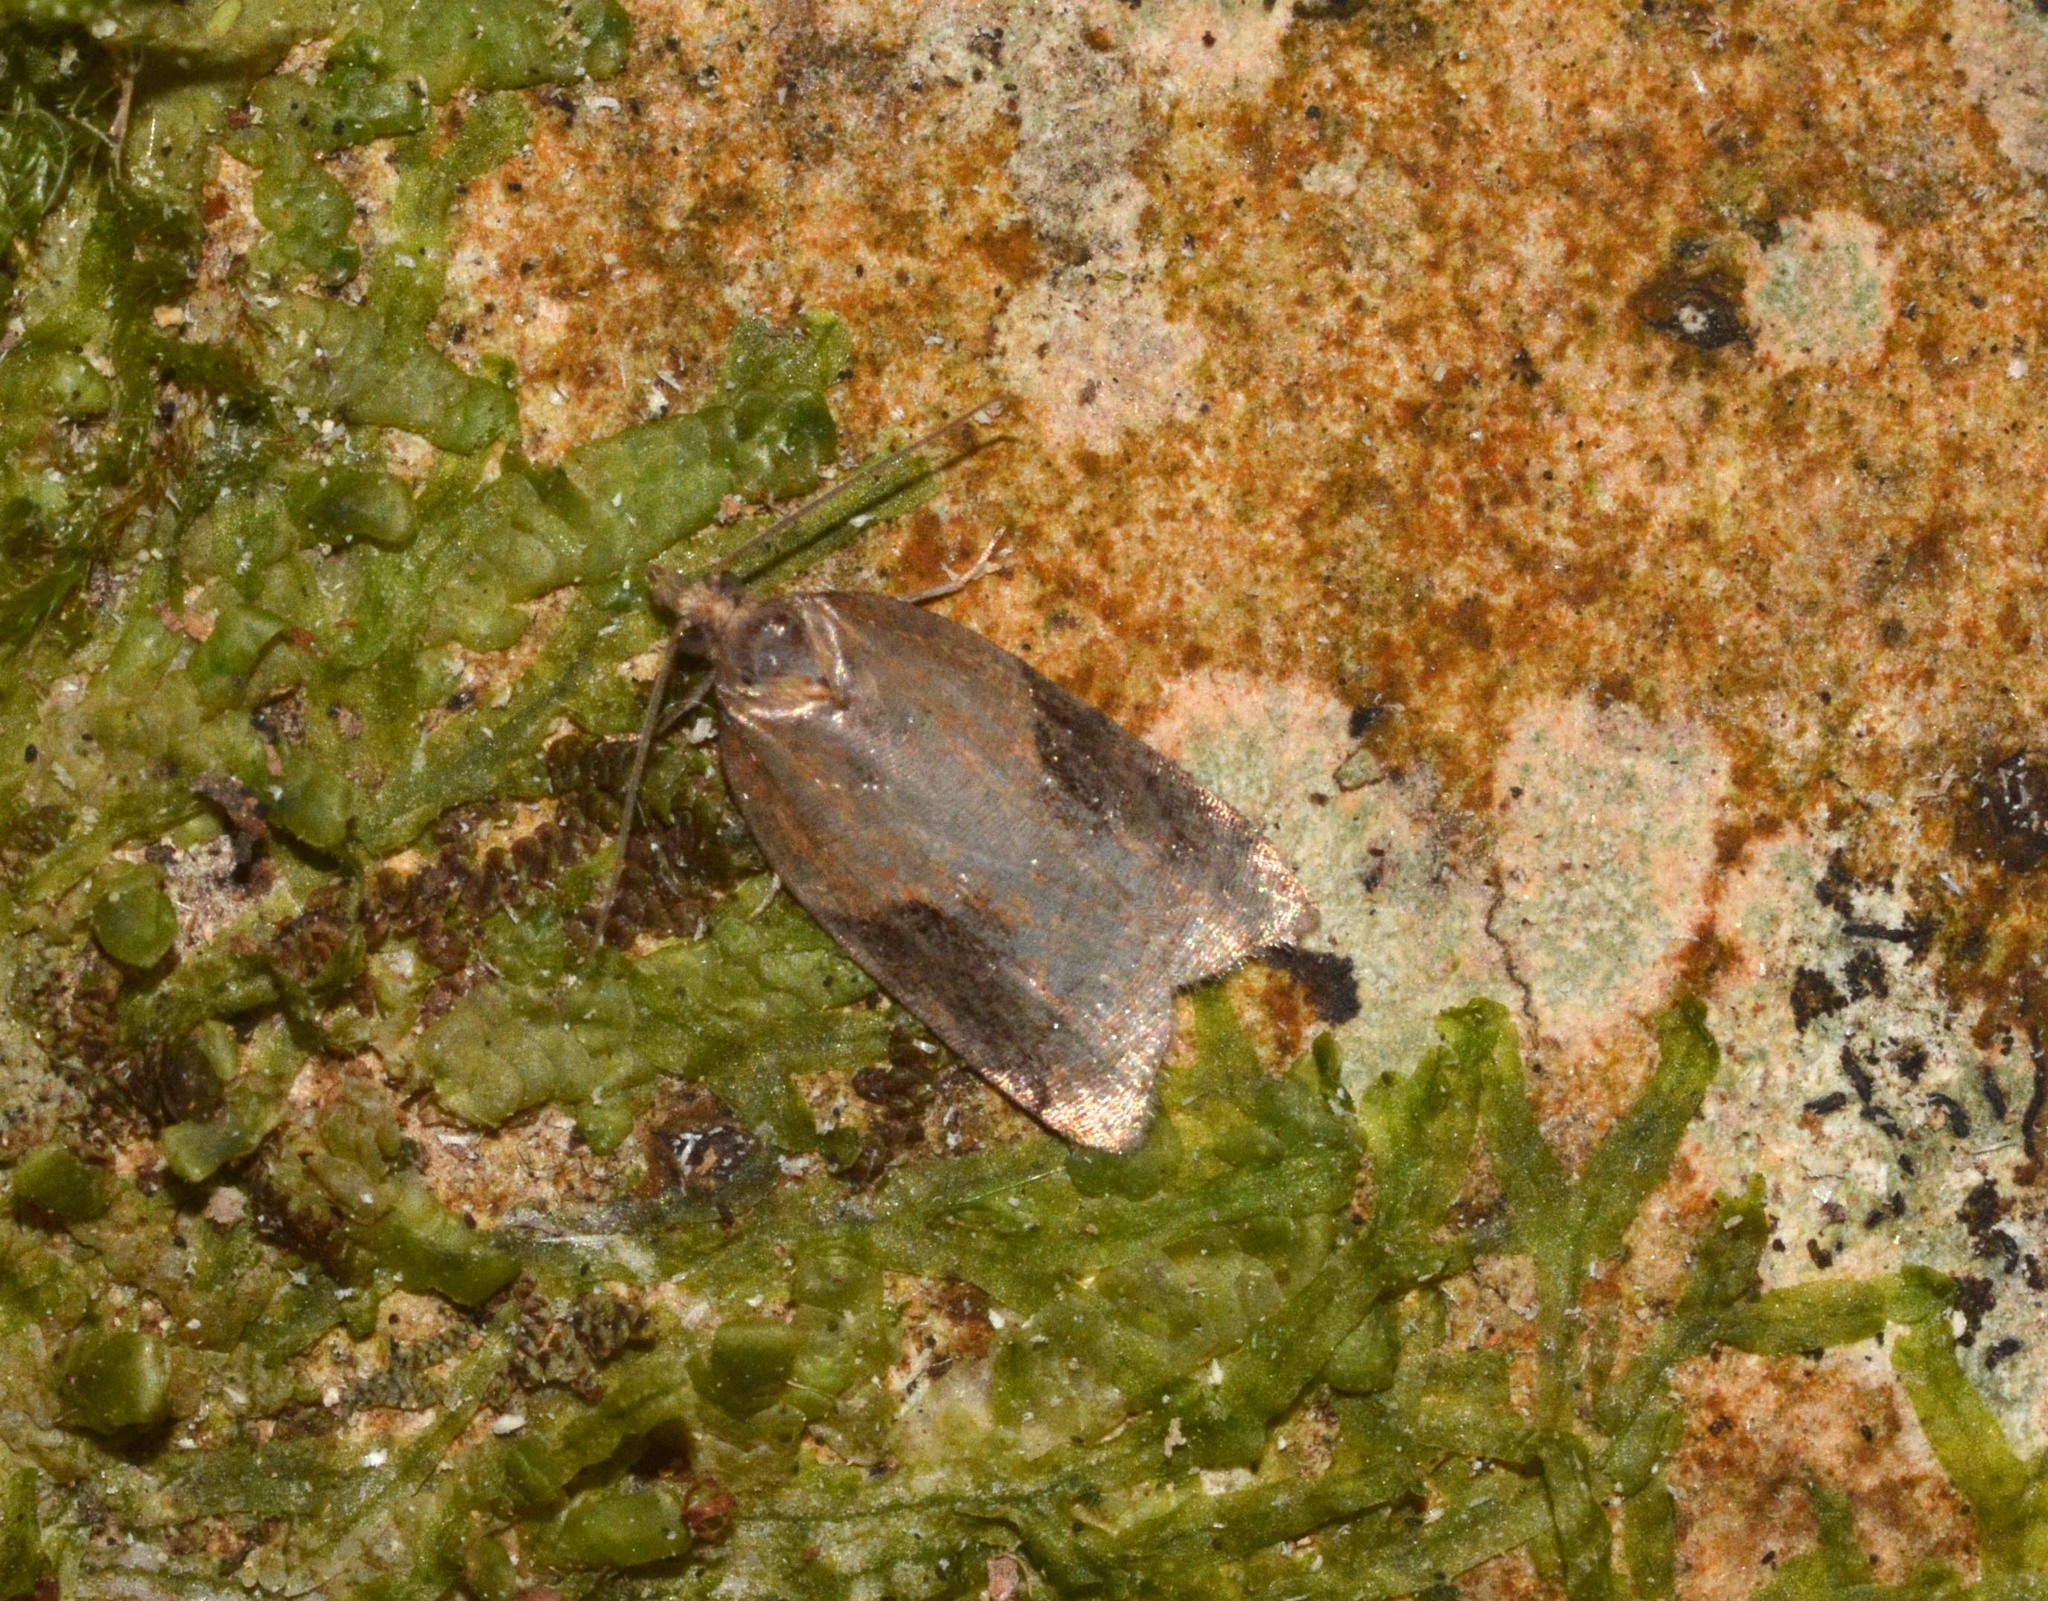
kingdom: Animalia
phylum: Arthropoda
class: Insecta
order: Lepidoptera
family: Tortricidae
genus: Acleris
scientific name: Acleris laterana
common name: Dark-triangle button
